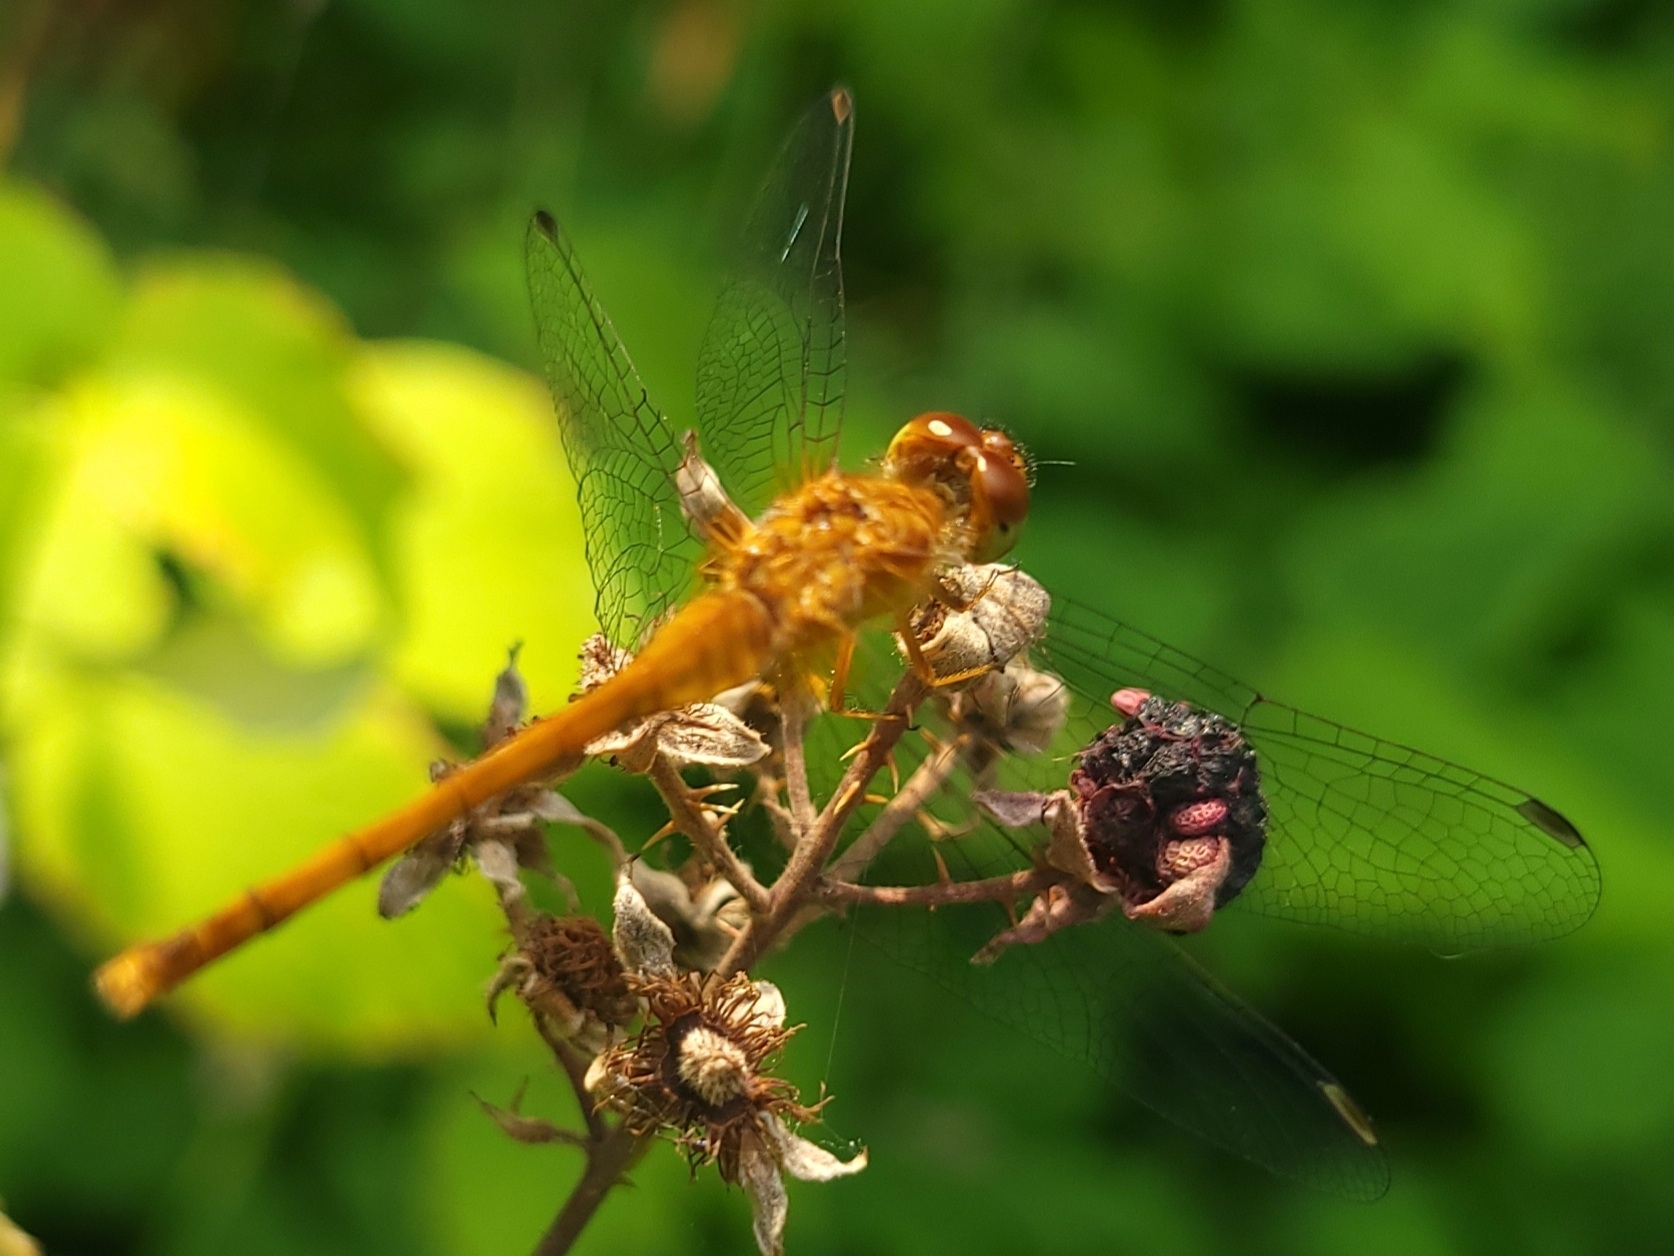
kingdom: Animalia
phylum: Arthropoda
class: Insecta
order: Odonata
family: Libellulidae
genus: Sympetrum
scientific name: Sympetrum vicinum
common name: Autumn meadowhawk
